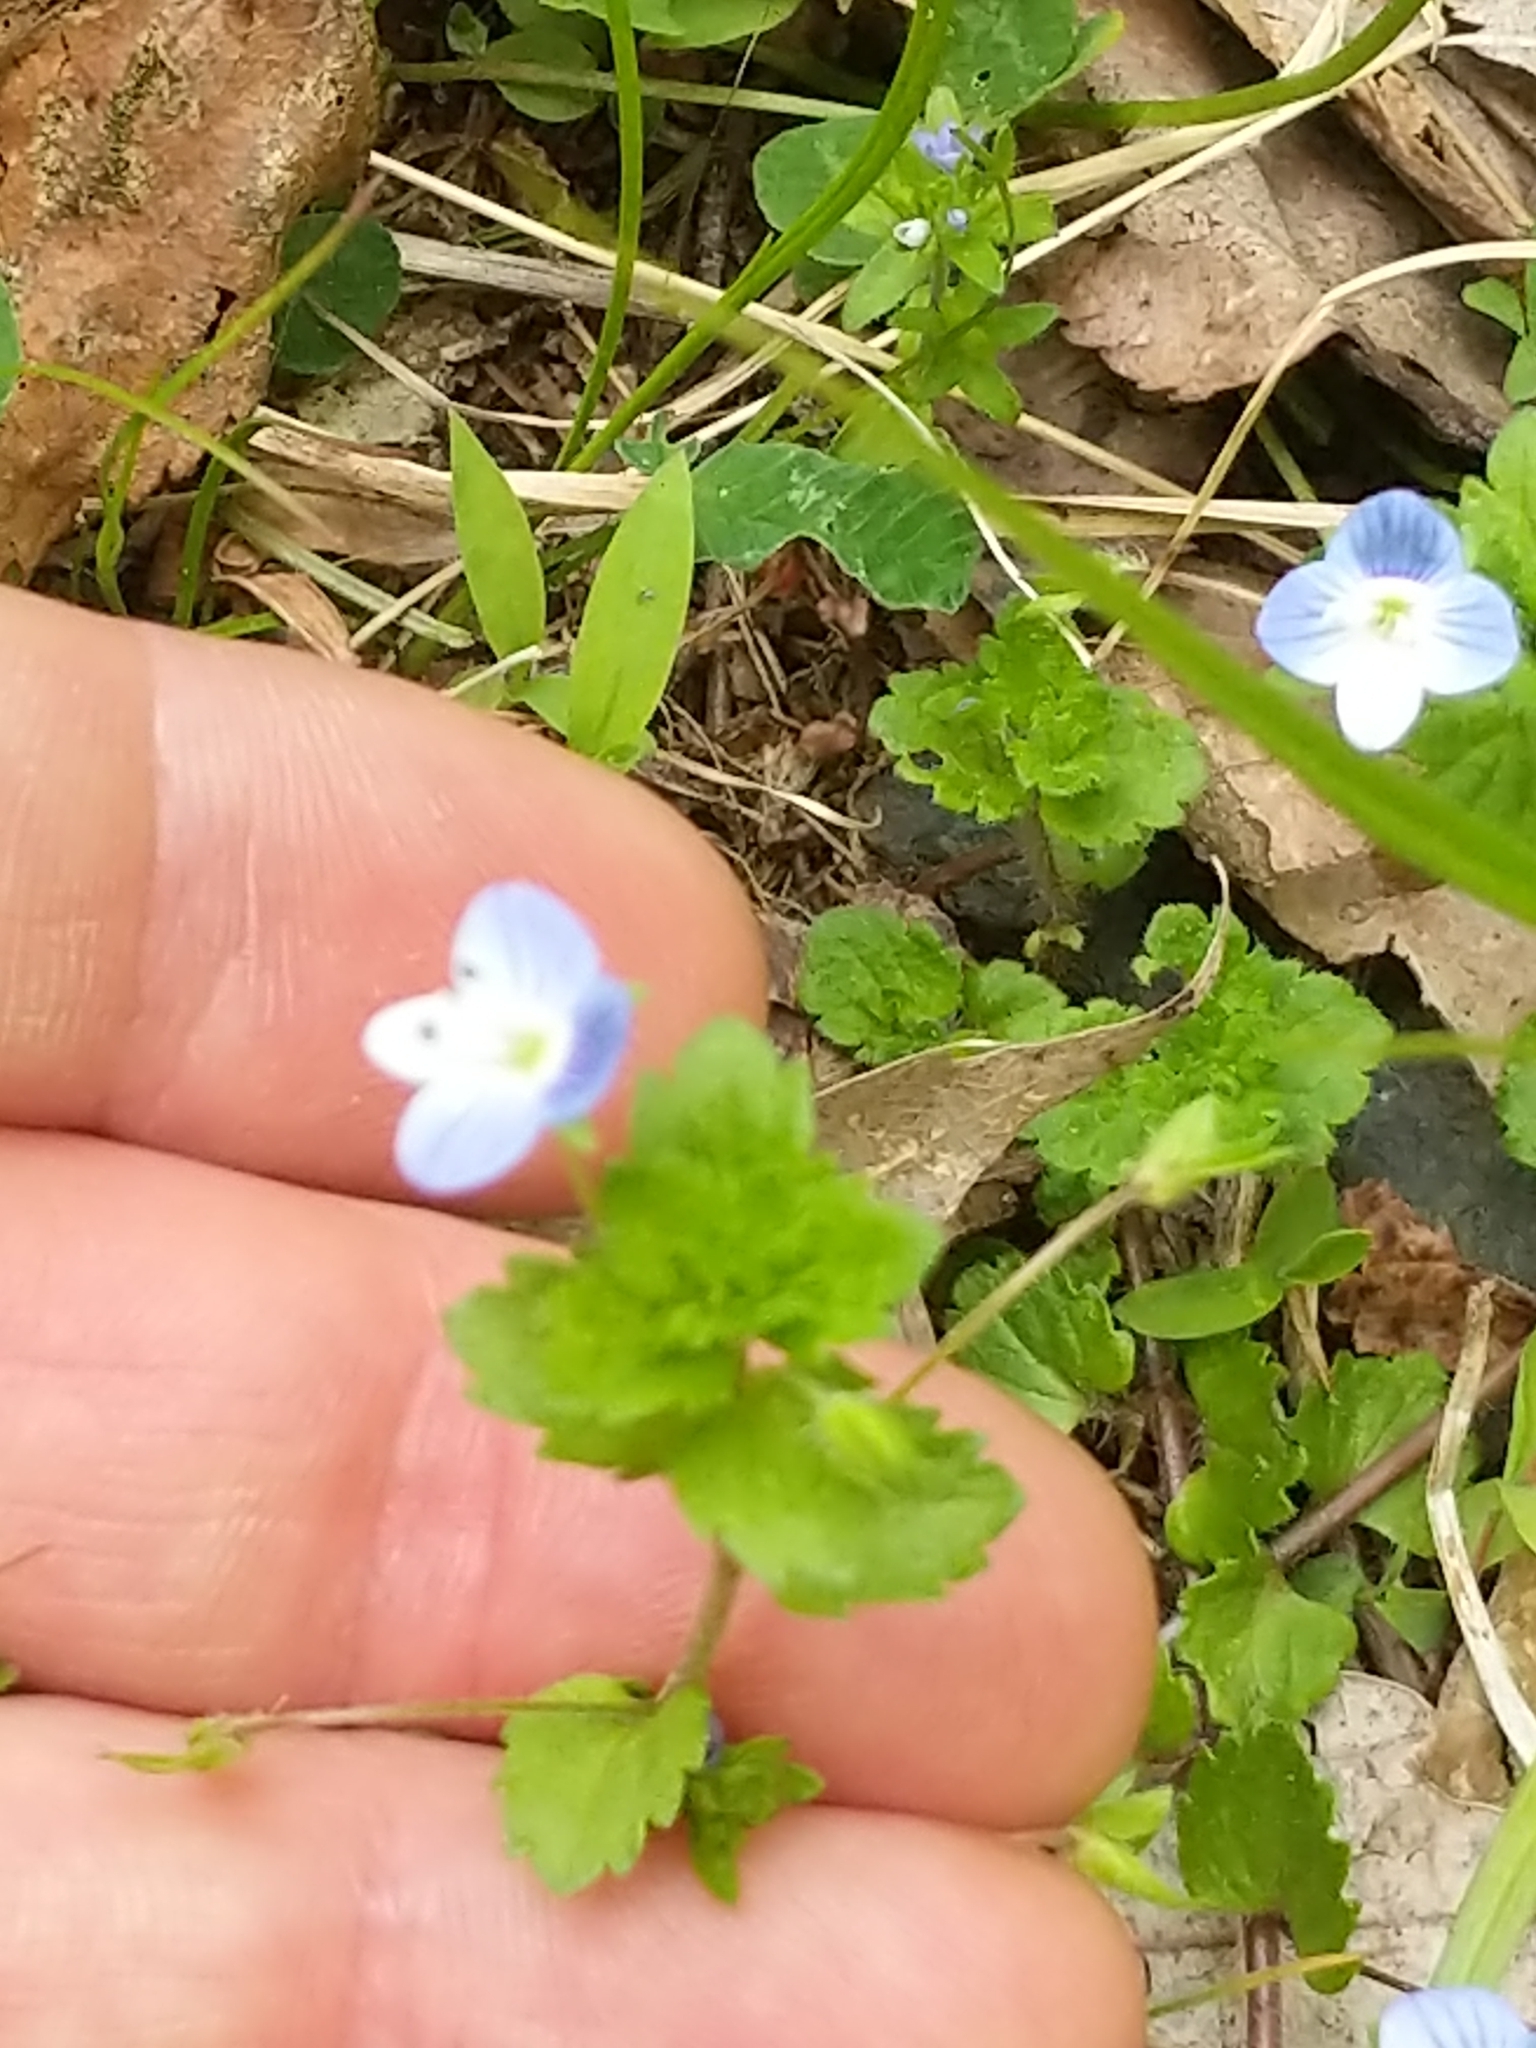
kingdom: Plantae
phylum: Tracheophyta
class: Magnoliopsida
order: Lamiales
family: Plantaginaceae
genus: Veronica
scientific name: Veronica persica
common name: Common field-speedwell
